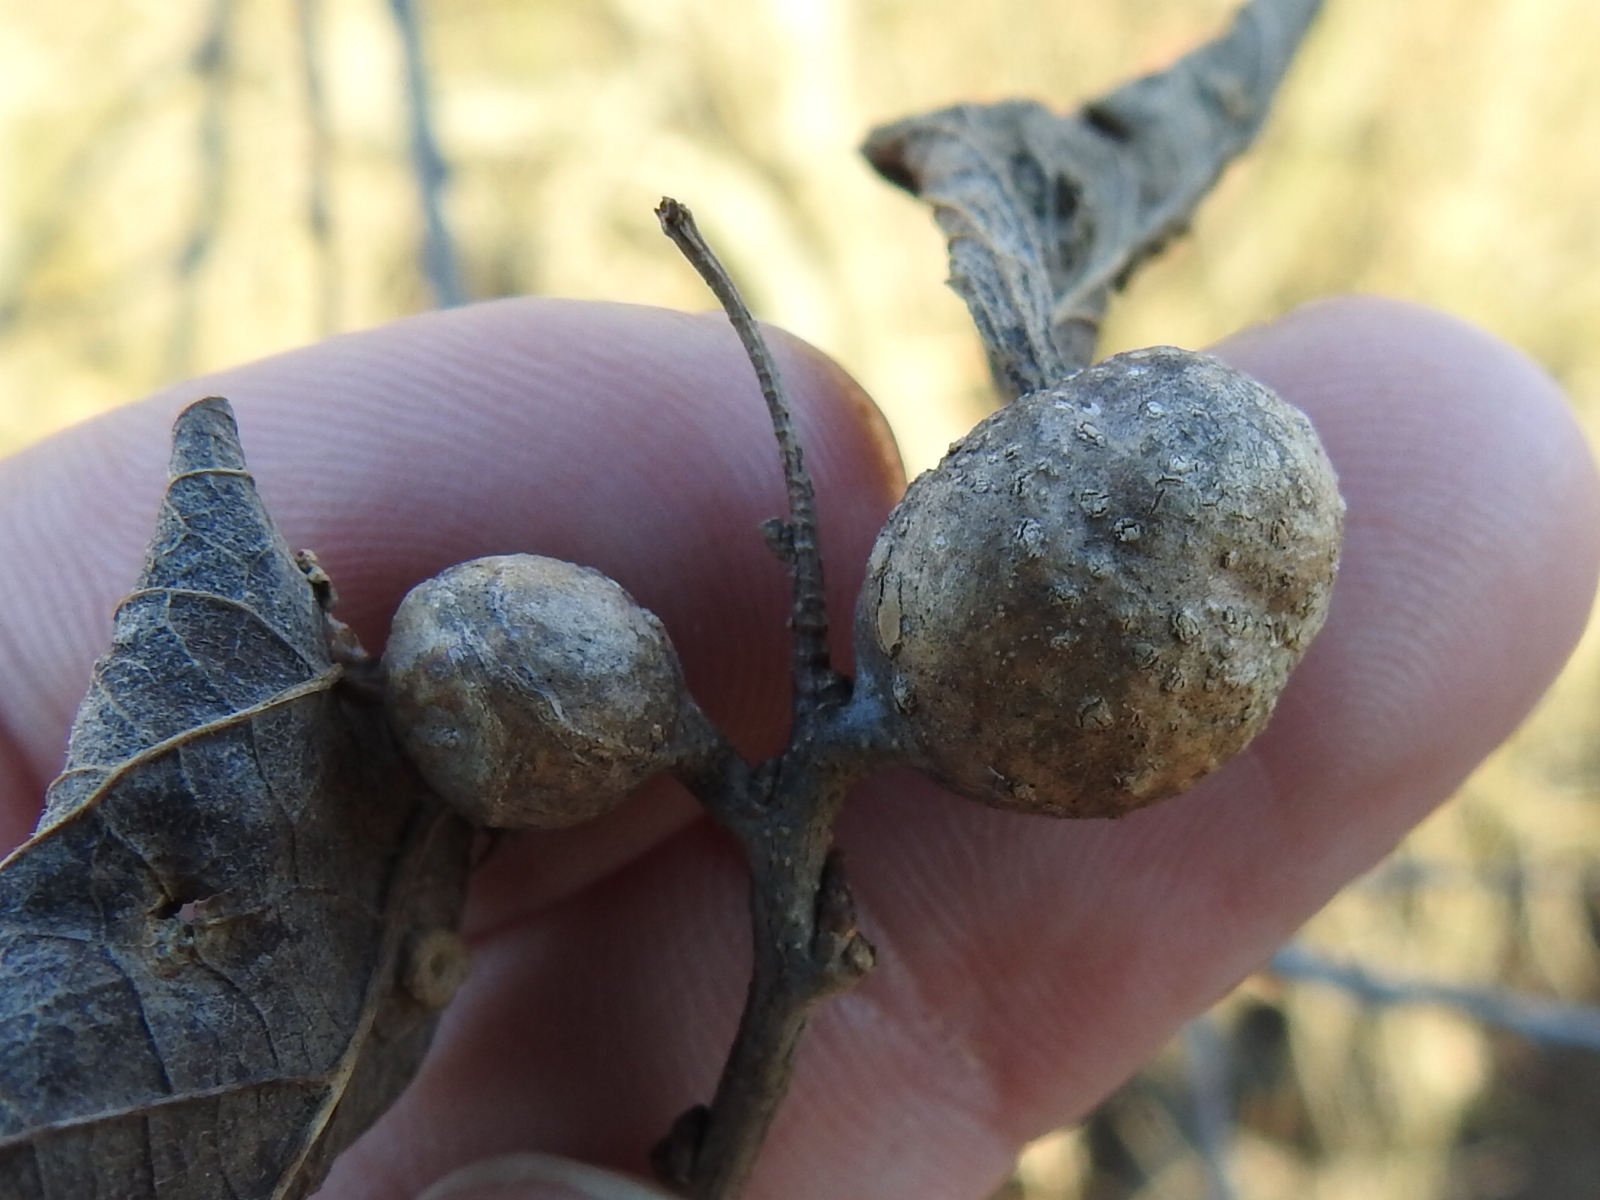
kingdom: Animalia
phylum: Arthropoda
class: Insecta
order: Hemiptera
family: Aphalaridae
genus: Pachypsylla
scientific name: Pachypsylla venusta
